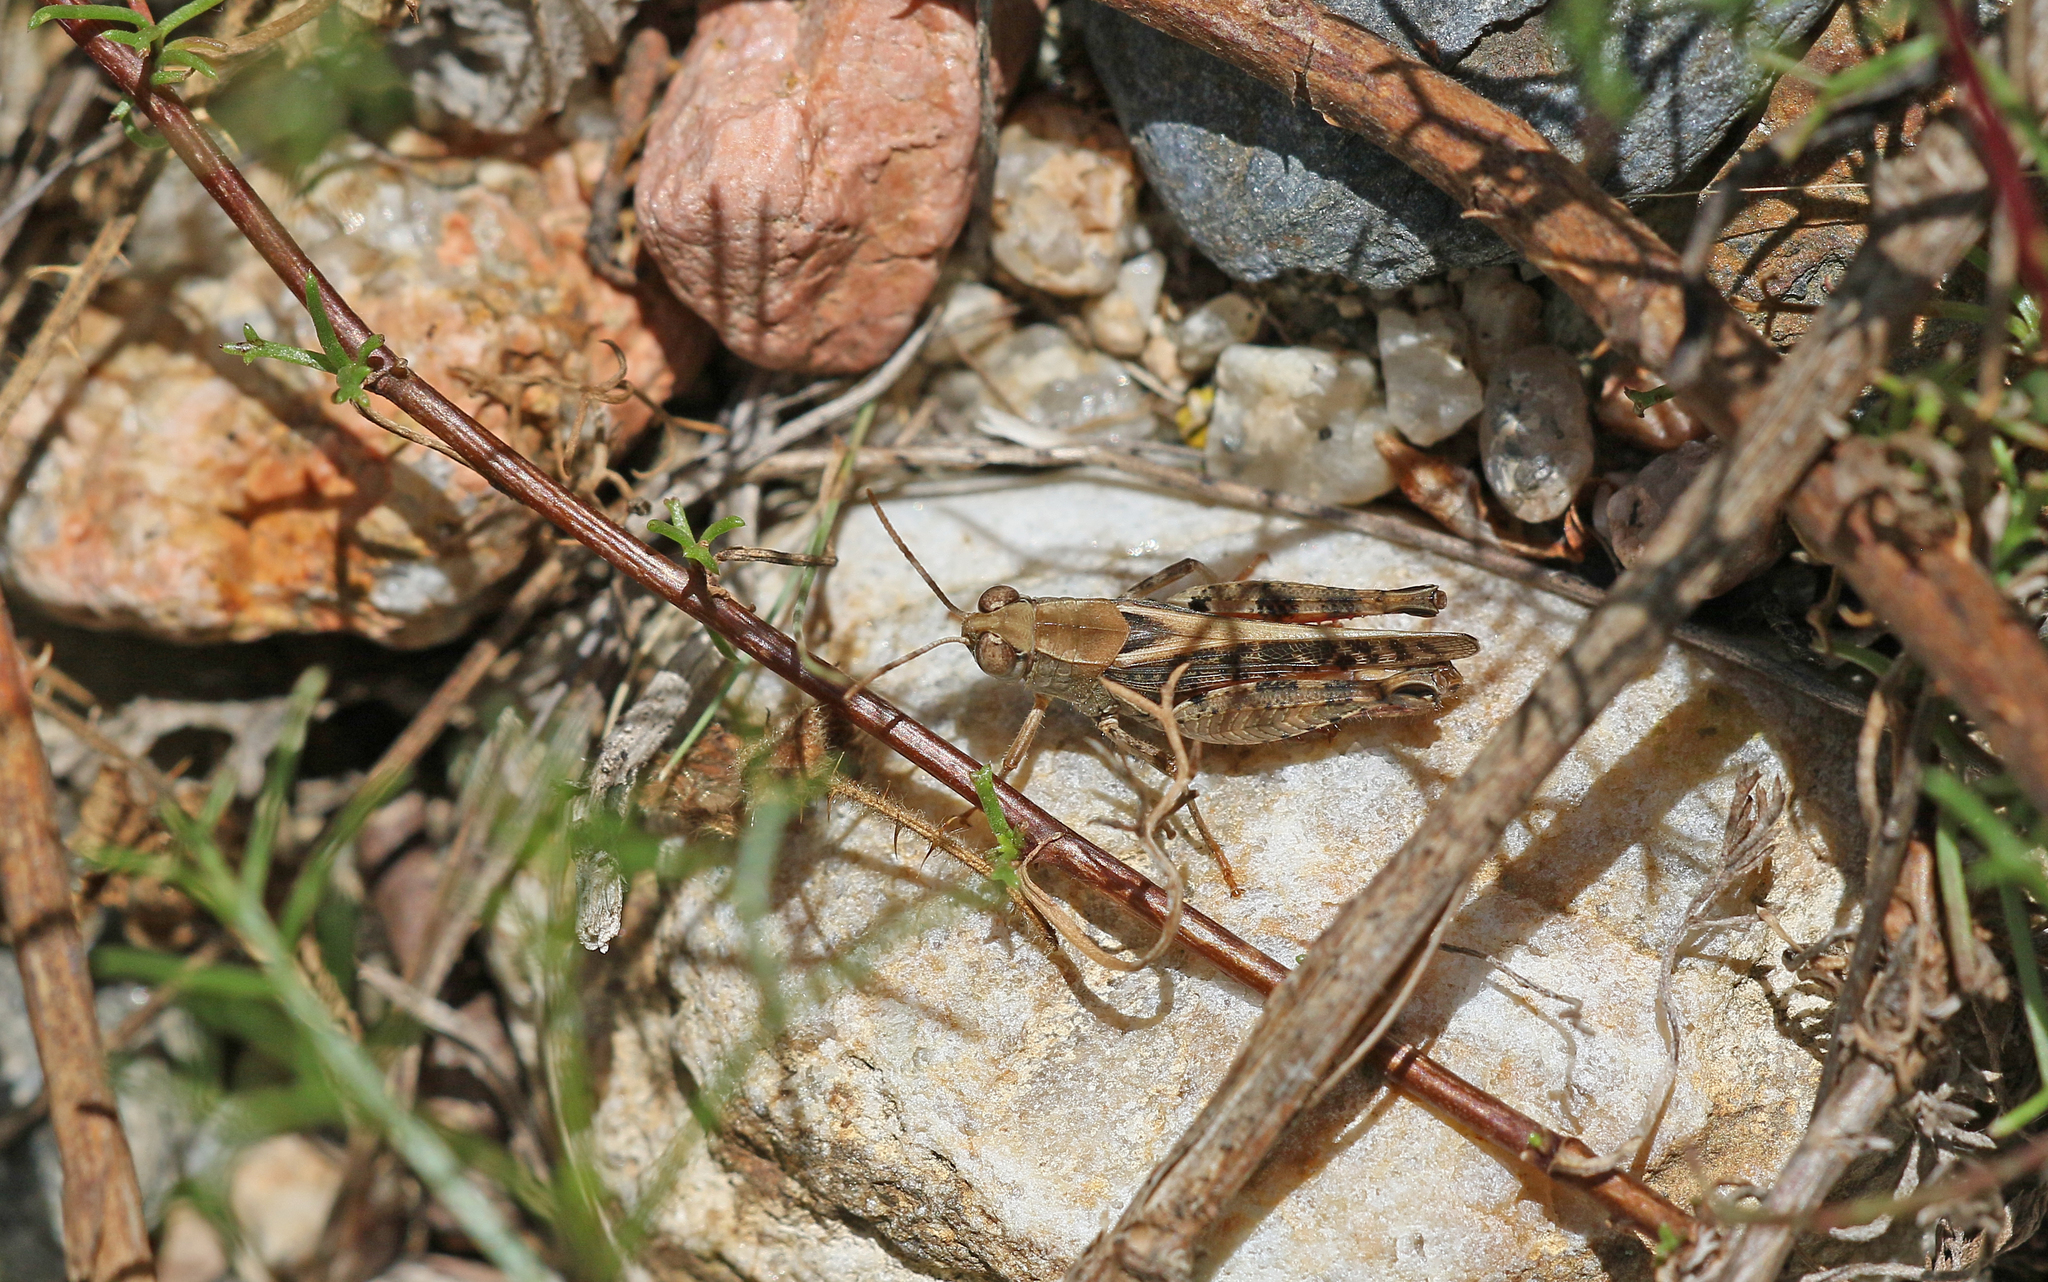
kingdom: Animalia
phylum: Arthropoda
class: Insecta
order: Orthoptera
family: Acrididae
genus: Calliptamus
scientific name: Calliptamus italicus
